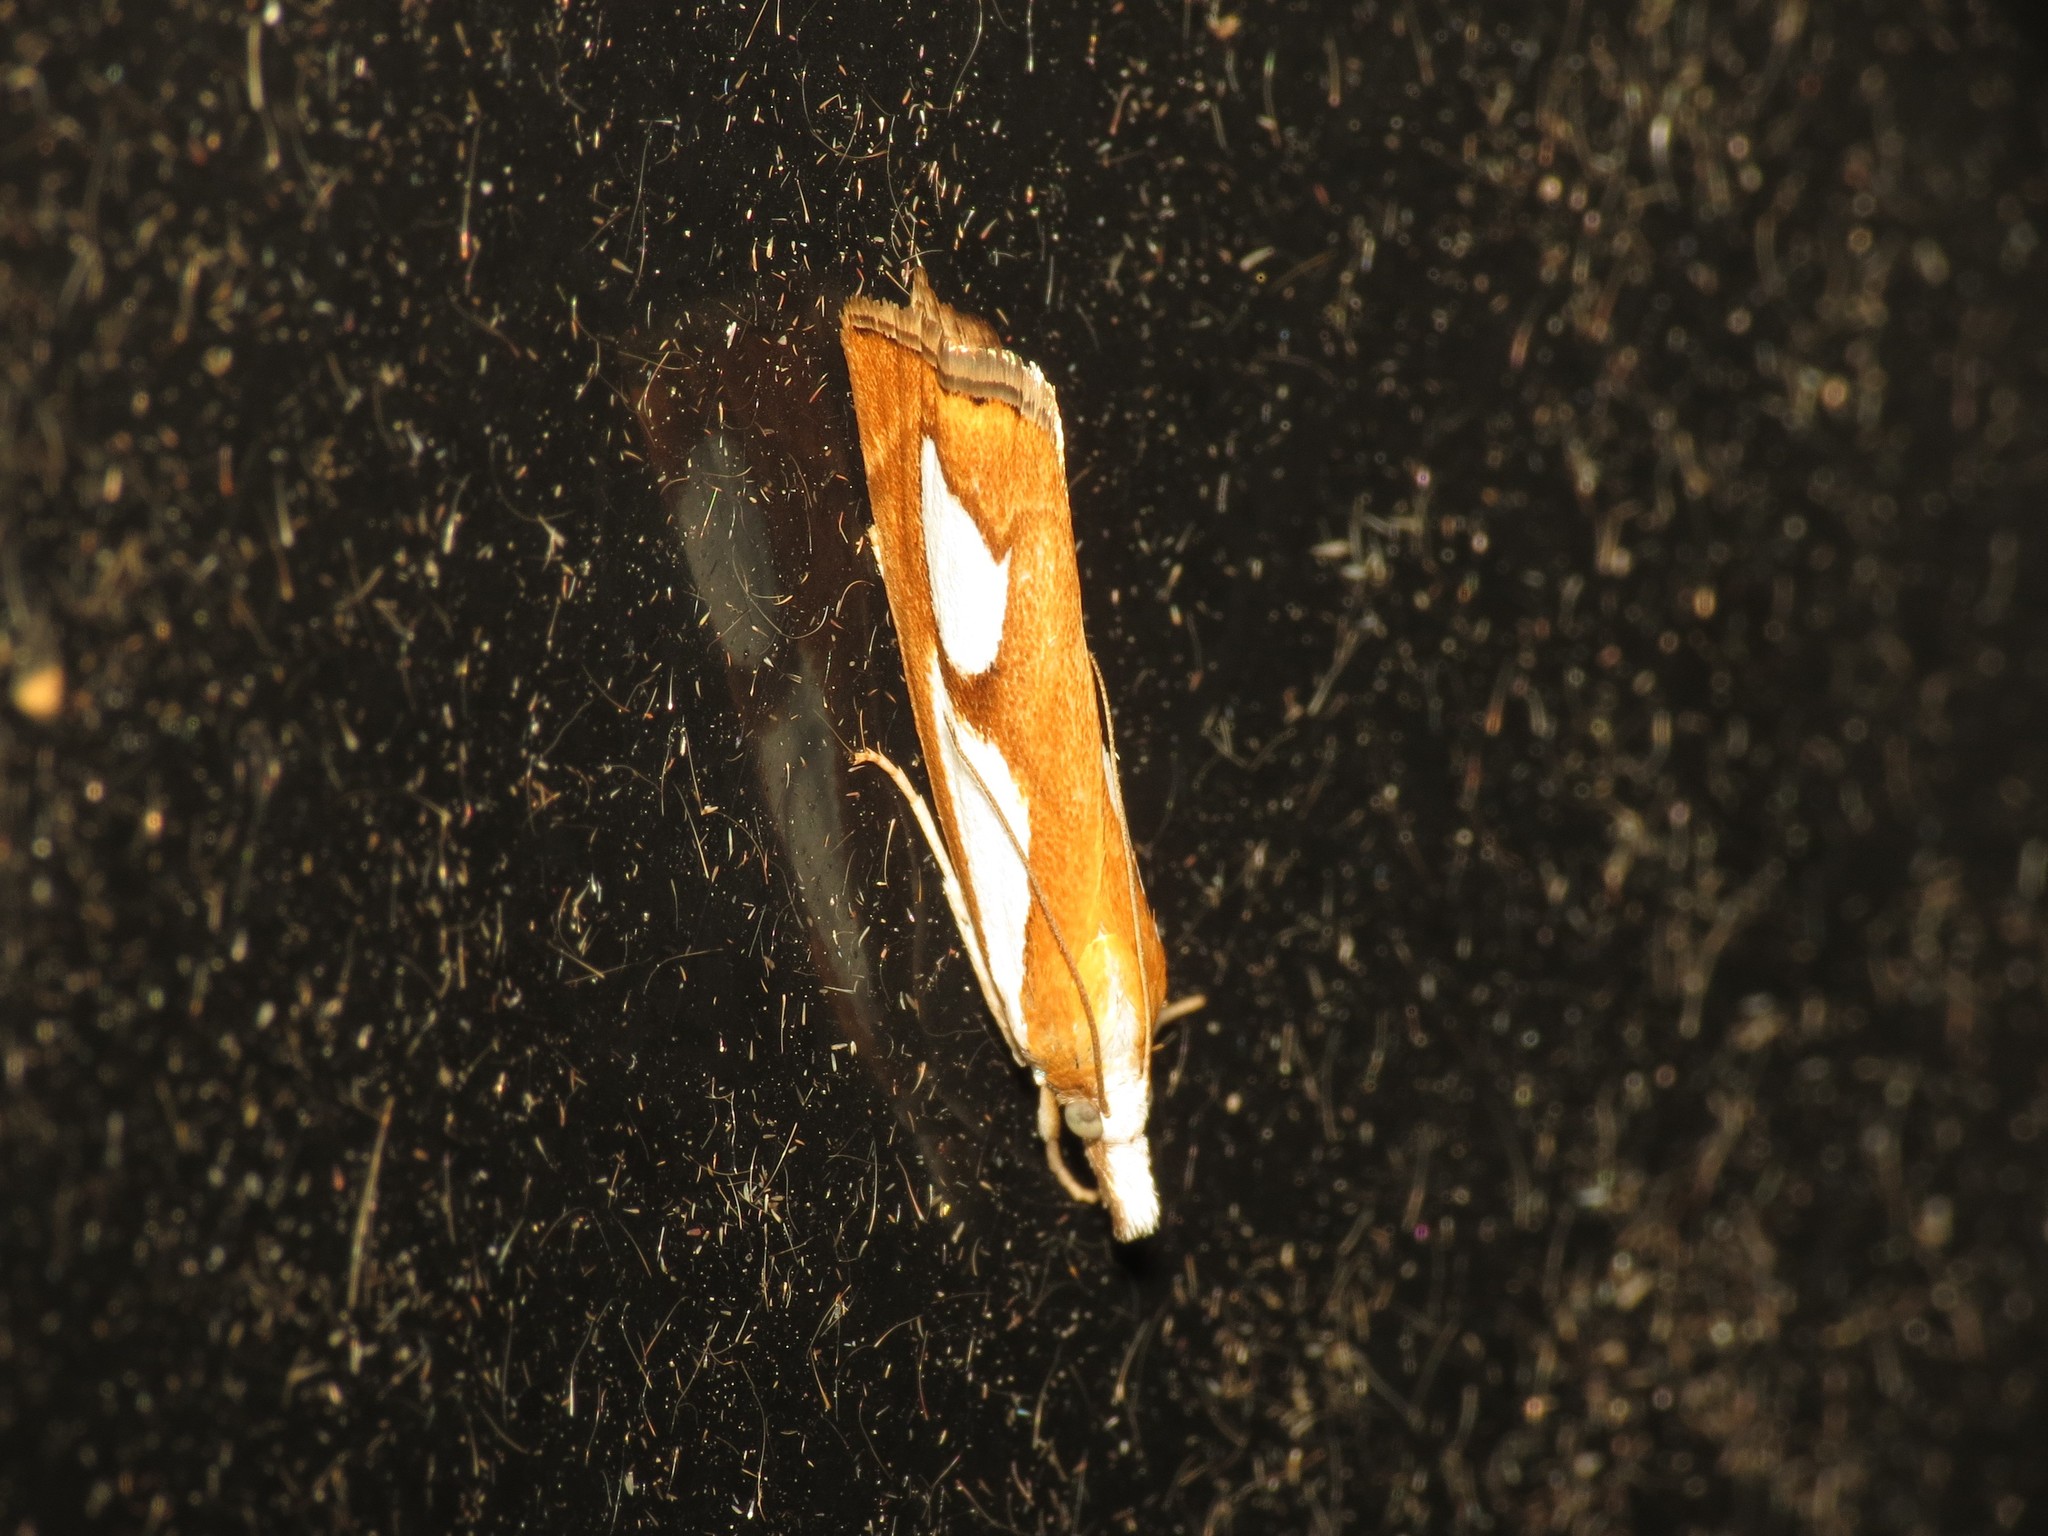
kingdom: Animalia
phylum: Arthropoda
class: Insecta
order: Lepidoptera
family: Crambidae
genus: Catoptria
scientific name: Catoptria pinella
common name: Pearl grass-veneer
